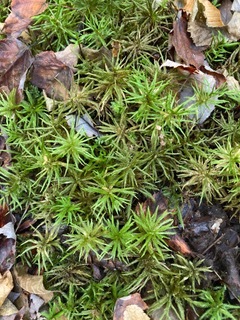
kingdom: Plantae
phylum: Bryophyta
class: Bryopsida
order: Hypnales
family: Climaciaceae
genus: Climacium
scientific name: Climacium americanum
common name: American tree moss
